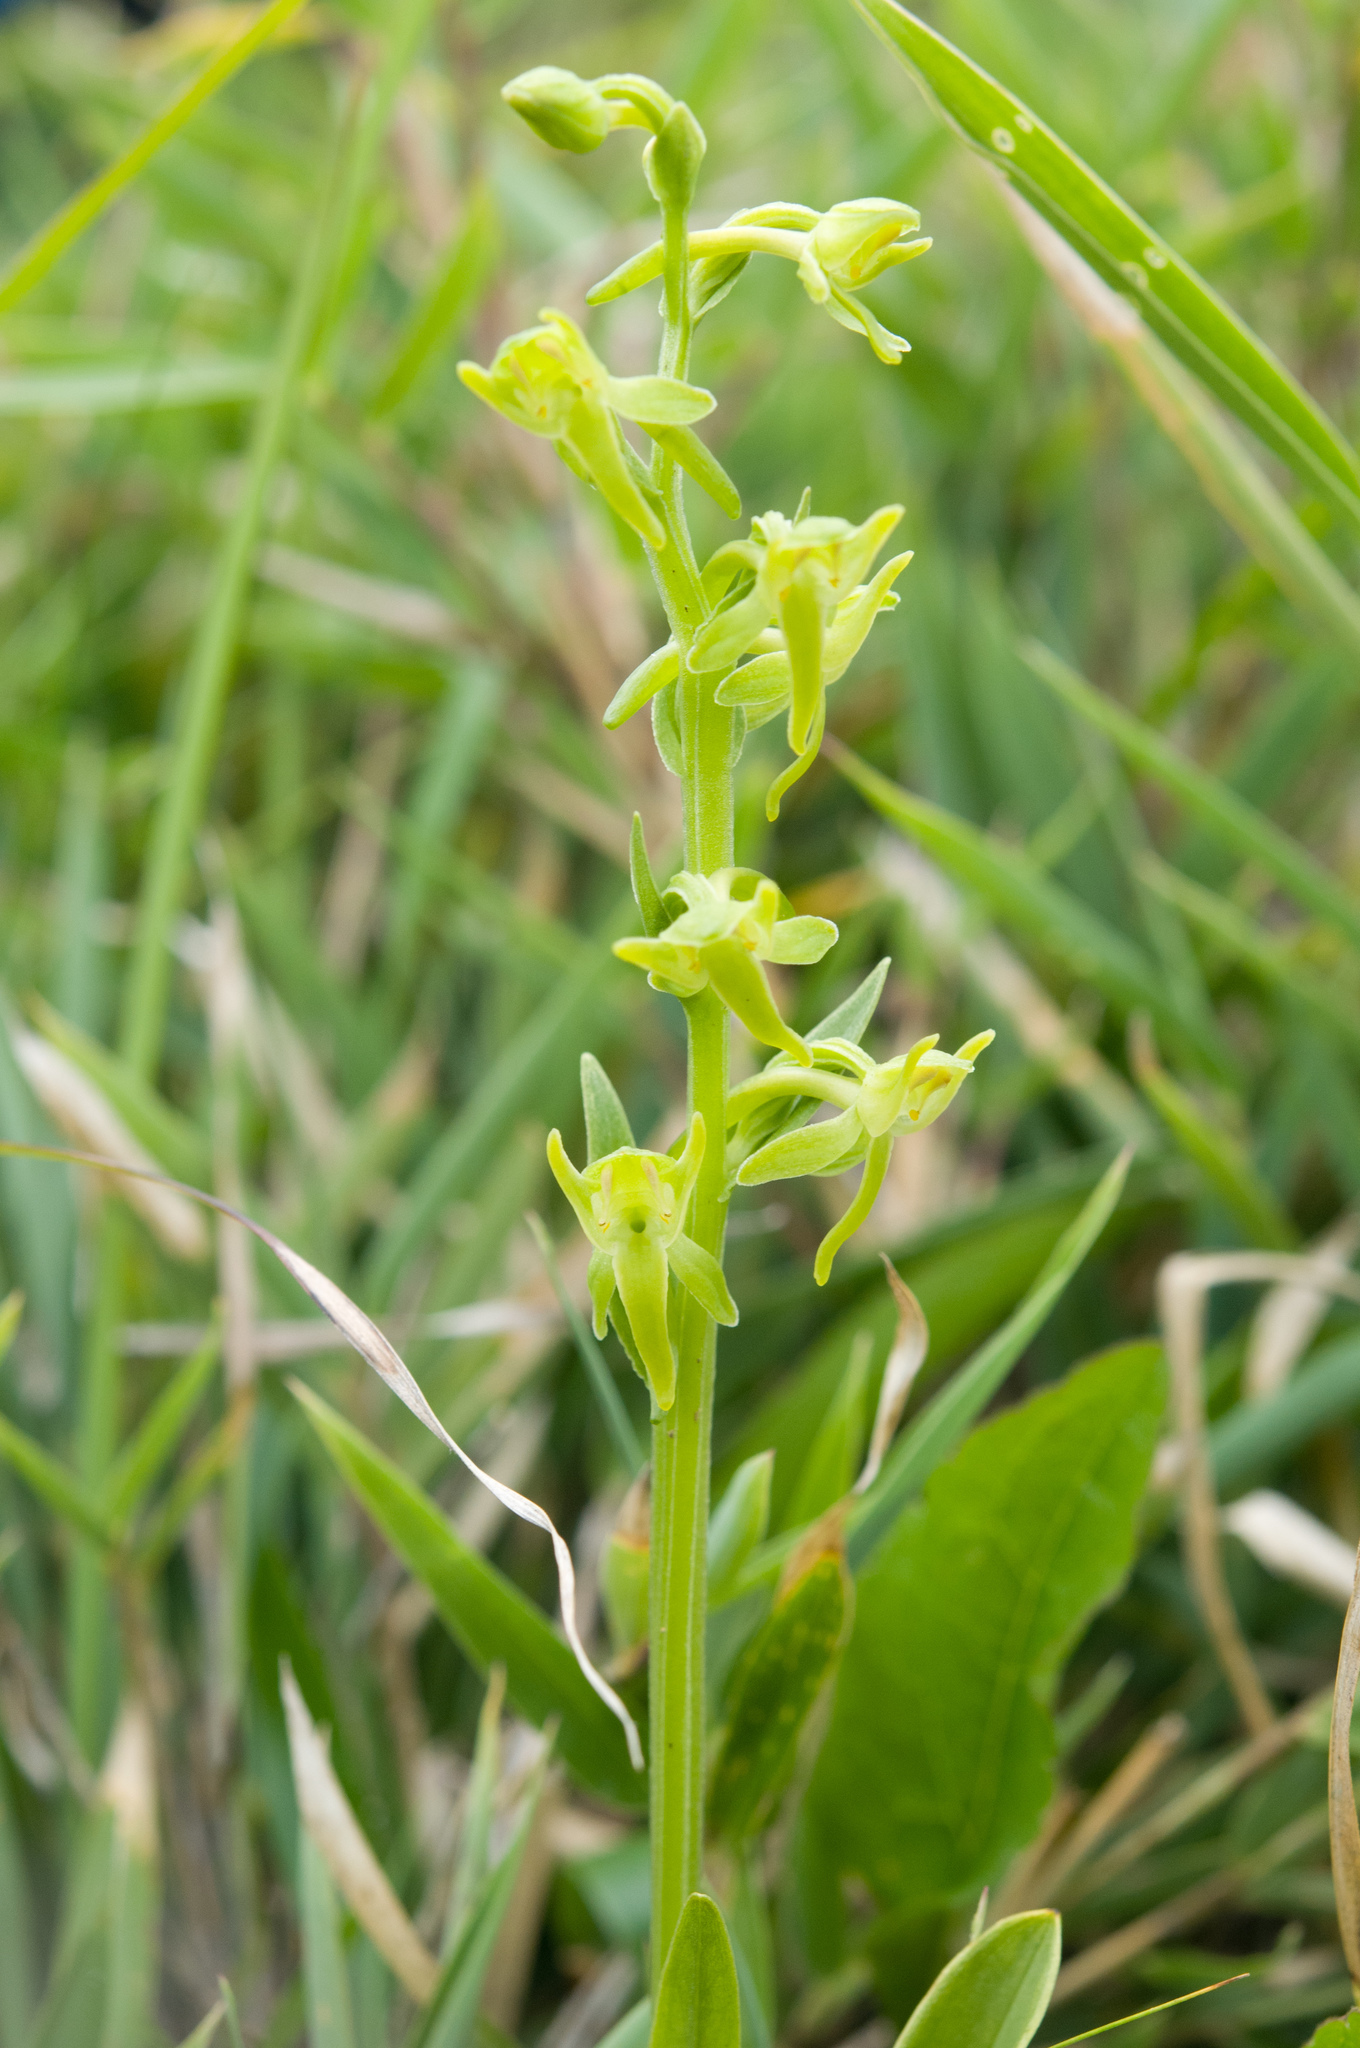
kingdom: Plantae
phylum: Tracheophyta
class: Liliopsida
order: Asparagales
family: Orchidaceae
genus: Platanthera
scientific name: Platanthera pachyglossa
